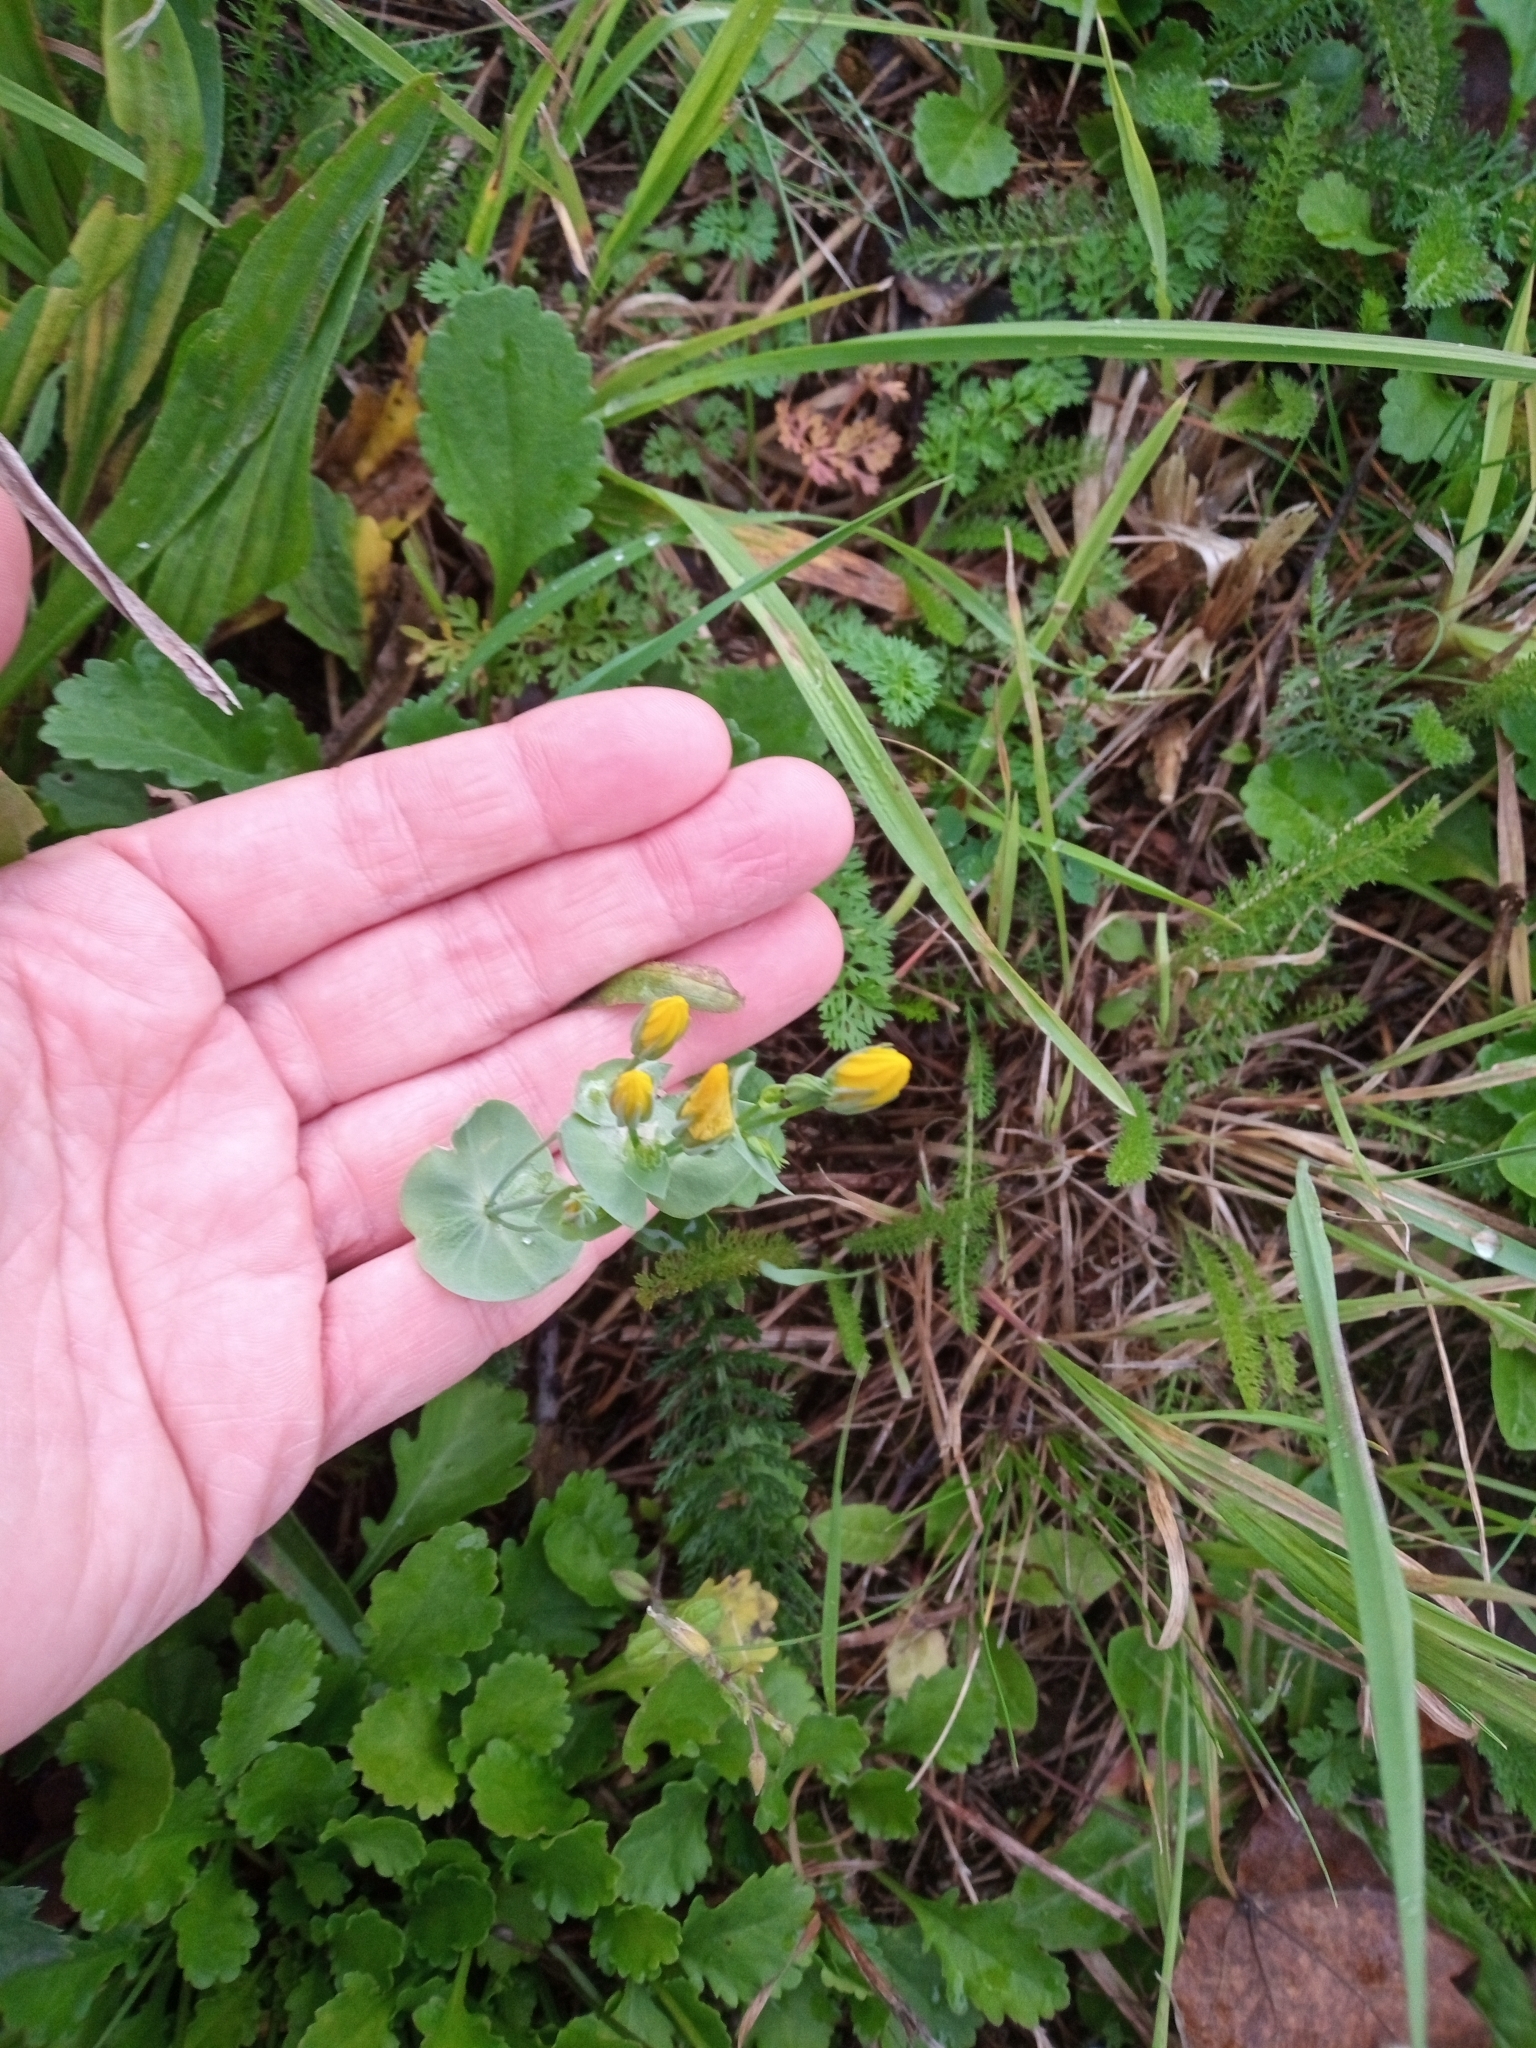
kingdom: Plantae
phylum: Tracheophyta
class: Magnoliopsida
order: Gentianales
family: Gentianaceae
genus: Blackstonia
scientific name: Blackstonia perfoliata
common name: Yellow-wort
